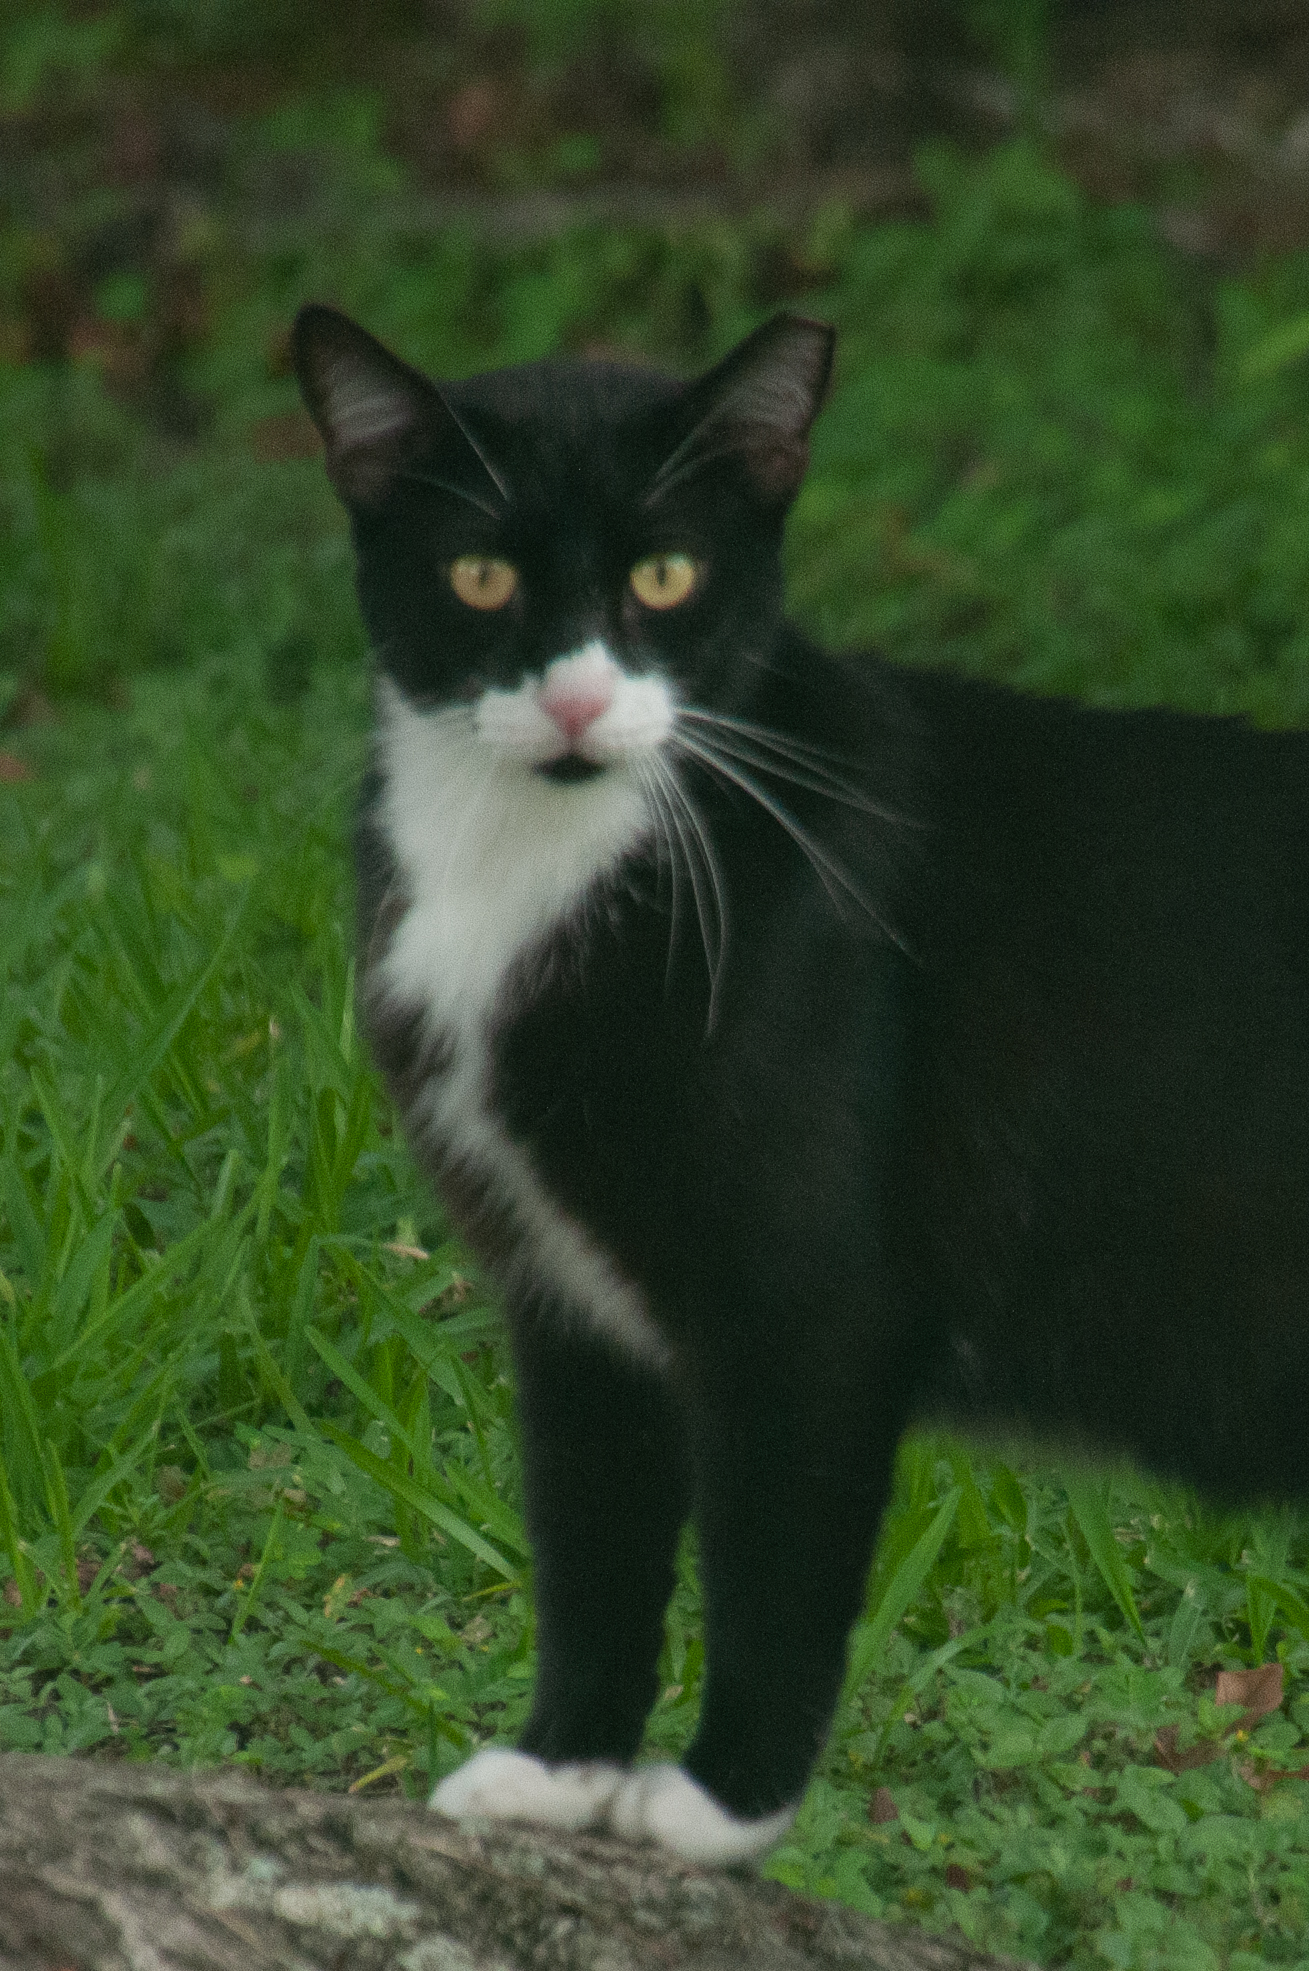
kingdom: Animalia
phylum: Chordata
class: Mammalia
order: Carnivora
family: Felidae
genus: Felis
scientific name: Felis catus
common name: Domestic cat
